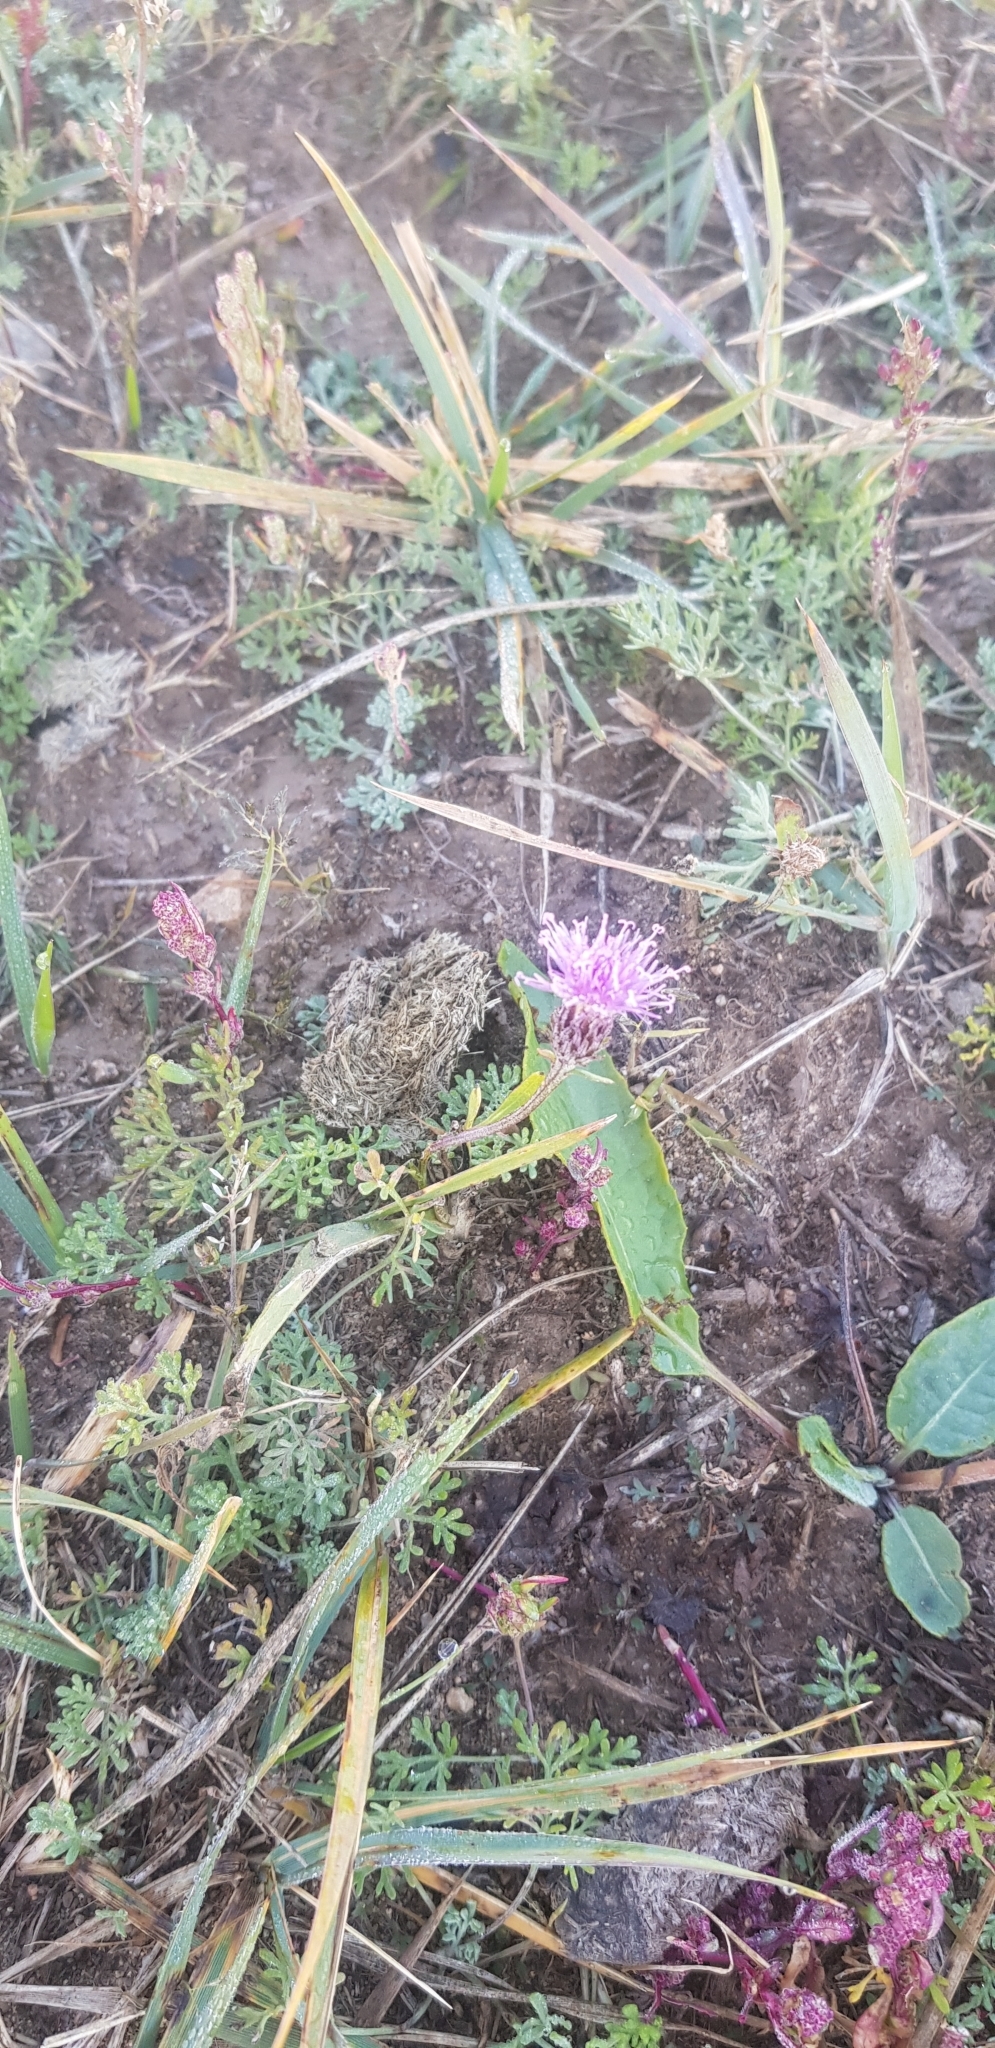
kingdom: Plantae
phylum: Tracheophyta
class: Magnoliopsida
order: Asterales
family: Asteraceae
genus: Saussurea
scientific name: Saussurea amara
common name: Alberta sawwort
